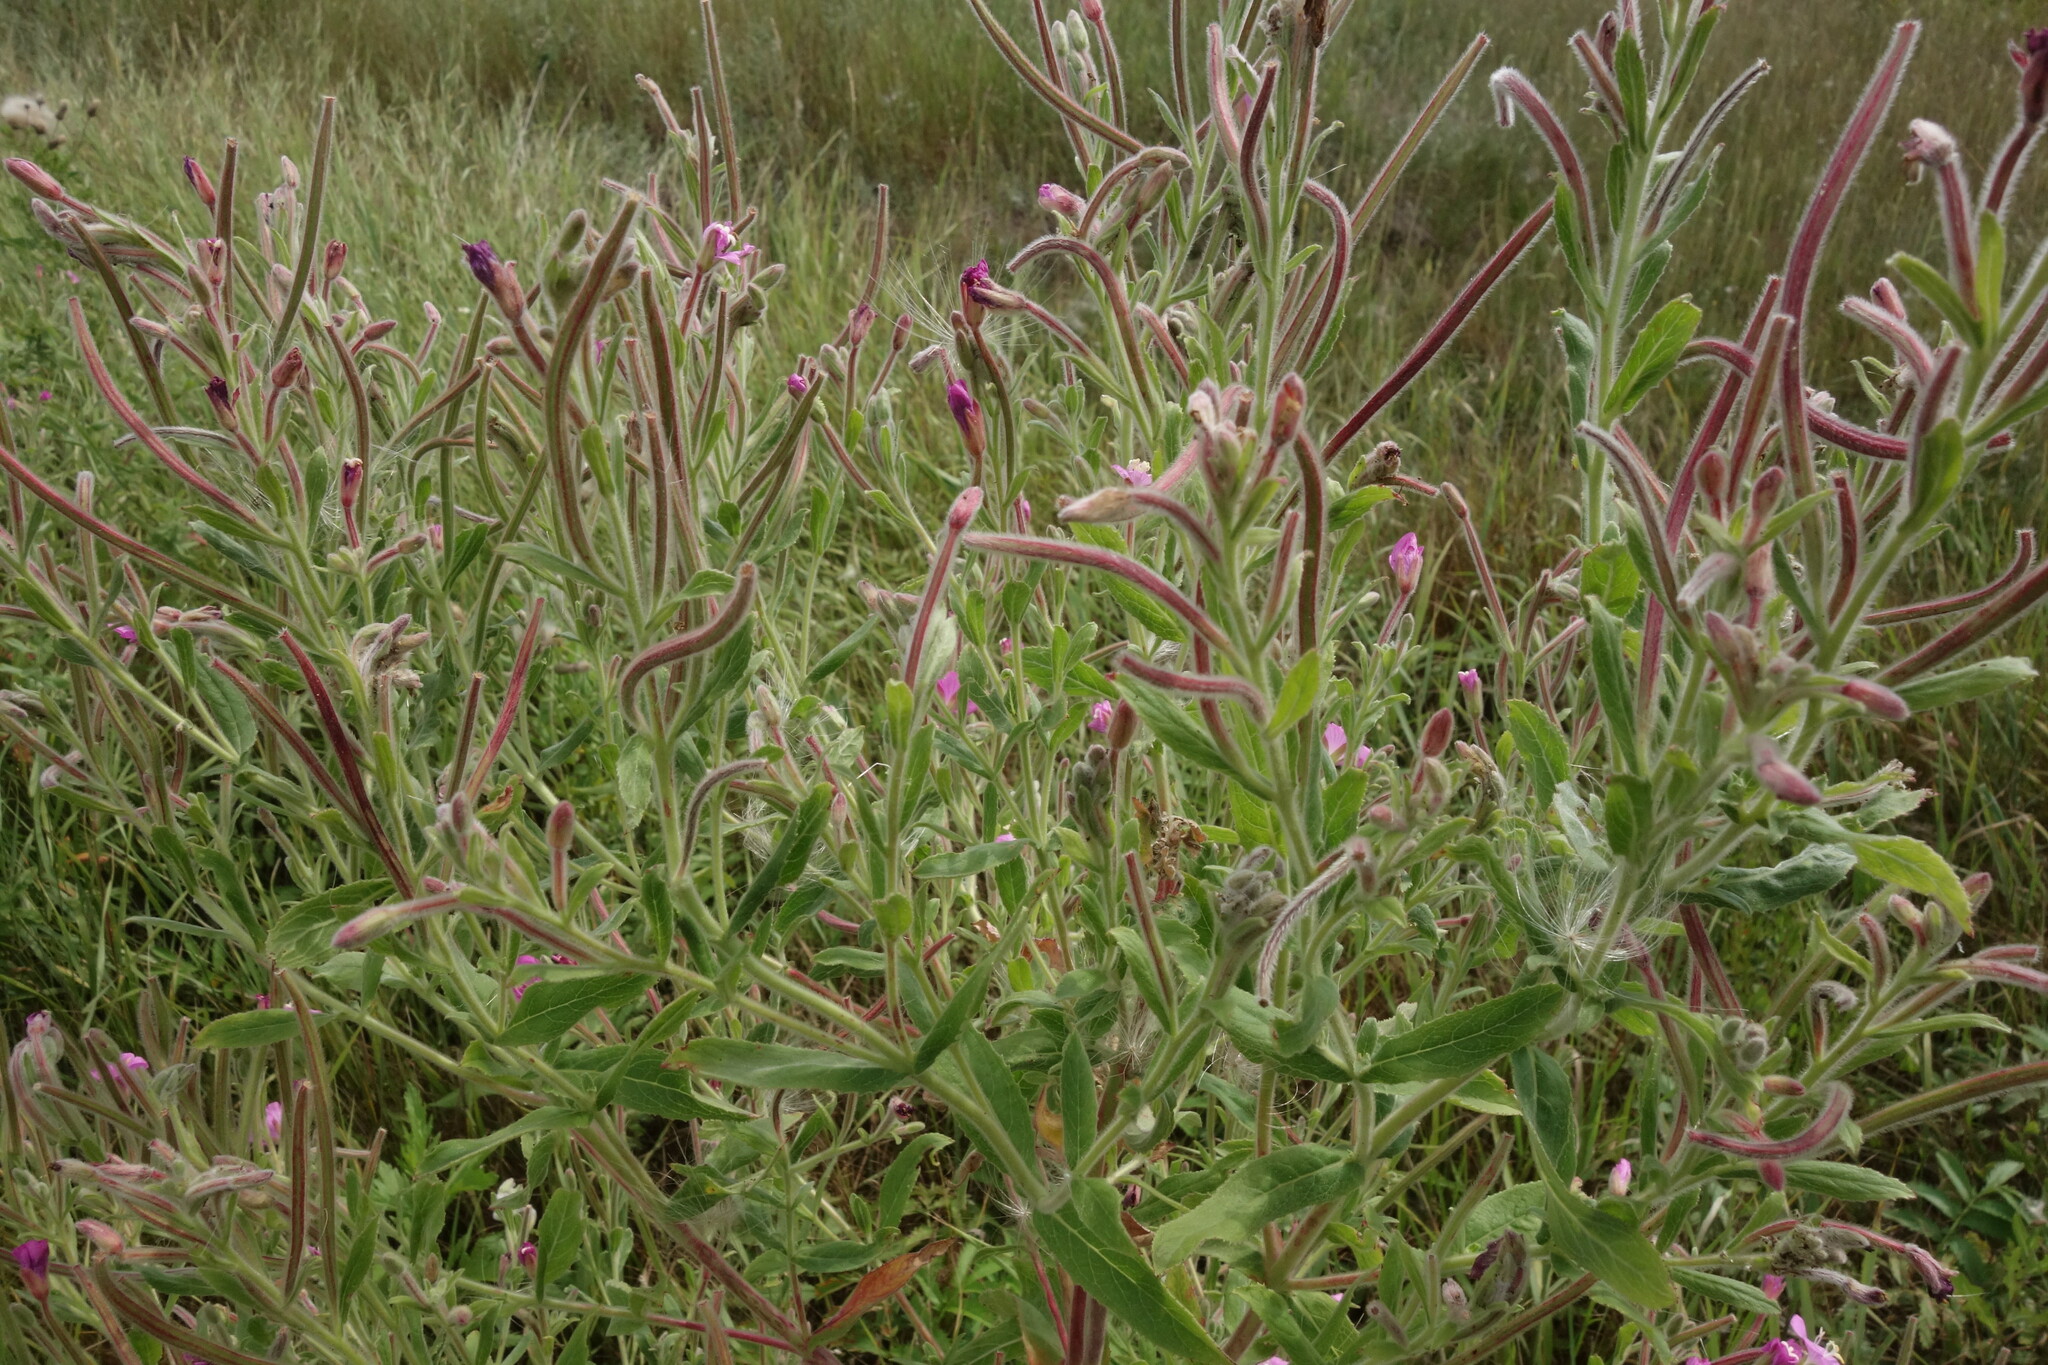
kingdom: Plantae
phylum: Tracheophyta
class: Magnoliopsida
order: Myrtales
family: Onagraceae
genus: Epilobium
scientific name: Epilobium hirsutum
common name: Great willowherb
